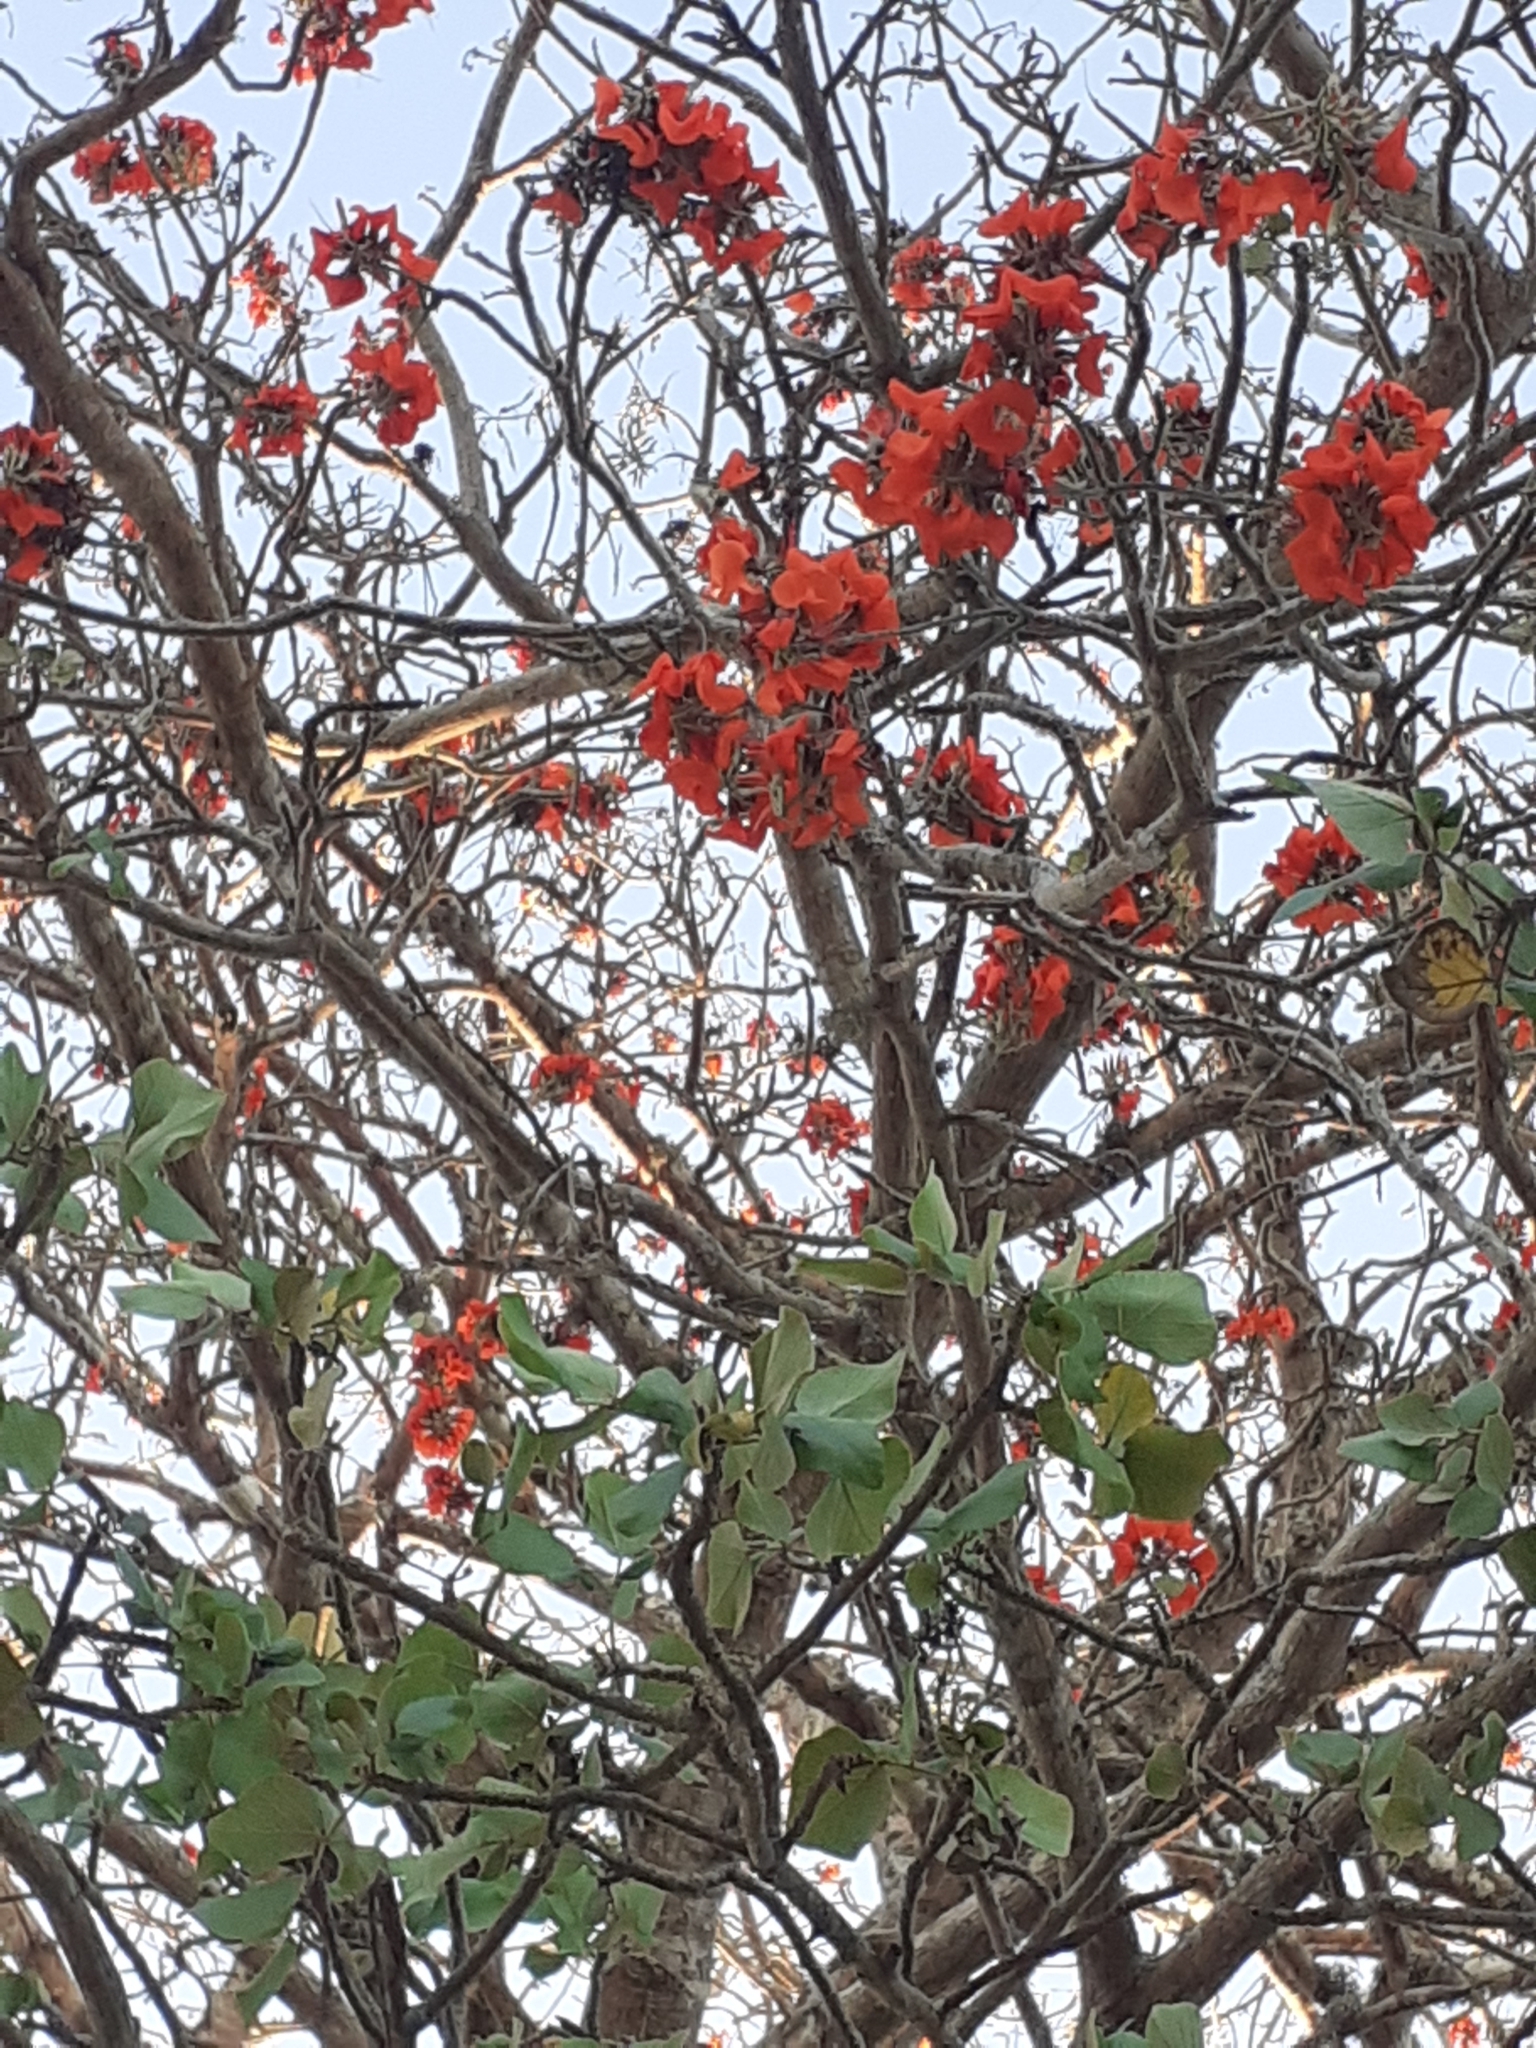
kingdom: Plantae
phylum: Tracheophyta
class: Magnoliopsida
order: Fabales
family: Fabaceae
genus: Erythrina
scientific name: Erythrina velutina
